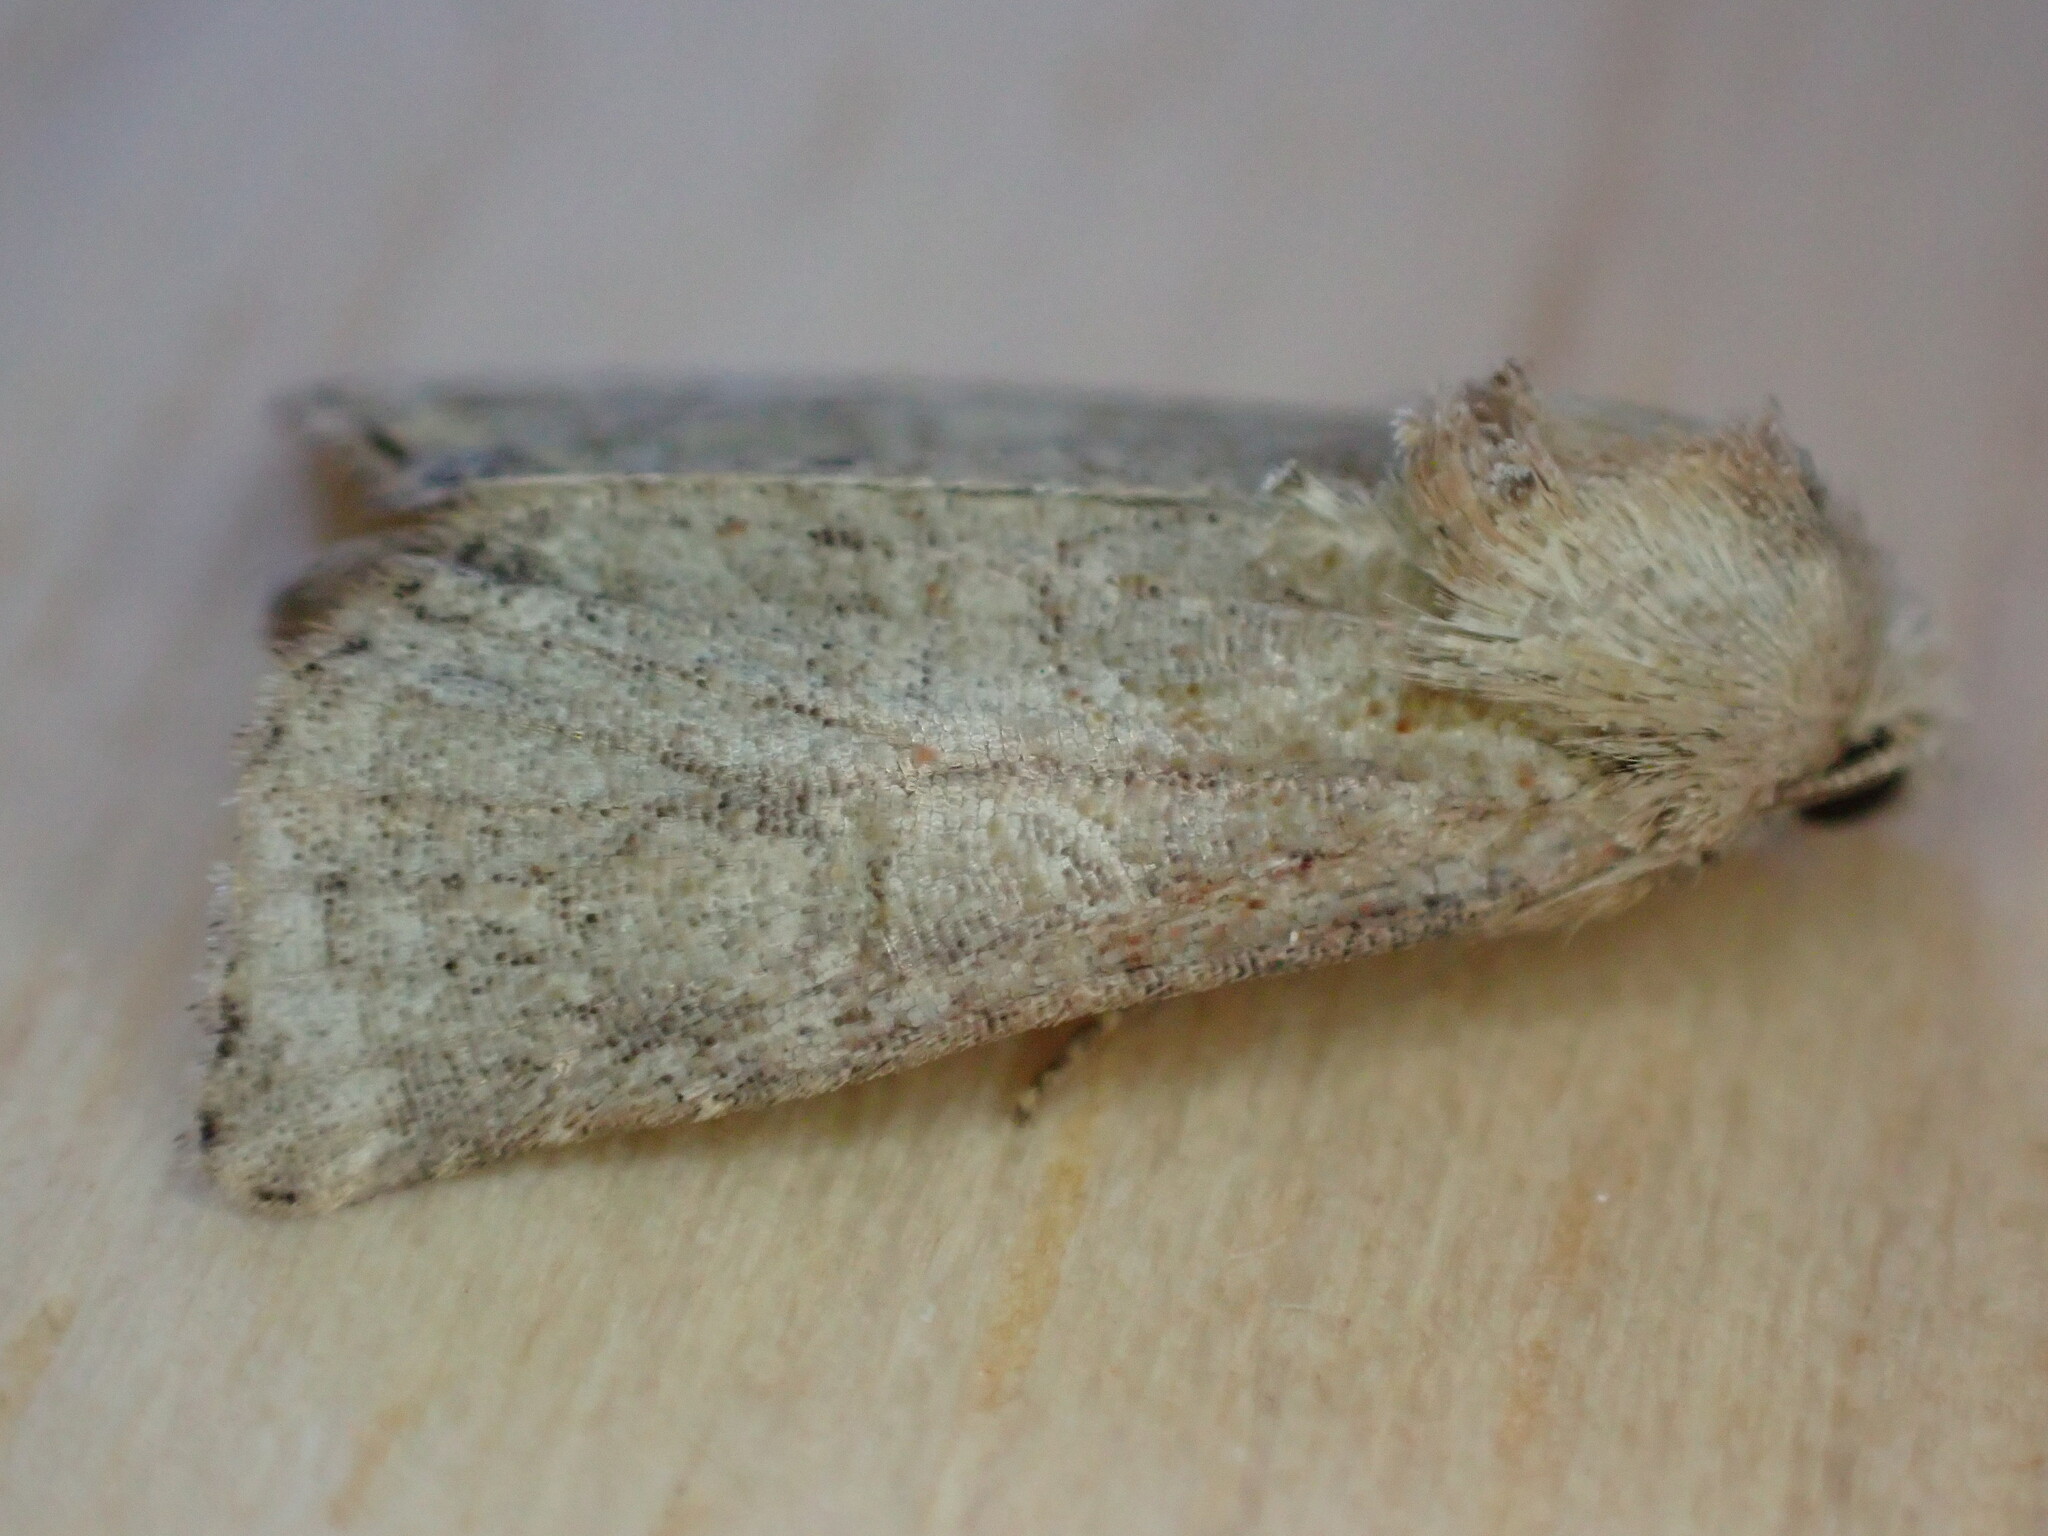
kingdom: Animalia
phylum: Arthropoda
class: Insecta
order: Lepidoptera
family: Noctuidae
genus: Mesoligia
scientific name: Mesoligia furuncula
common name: Cloaked minor
